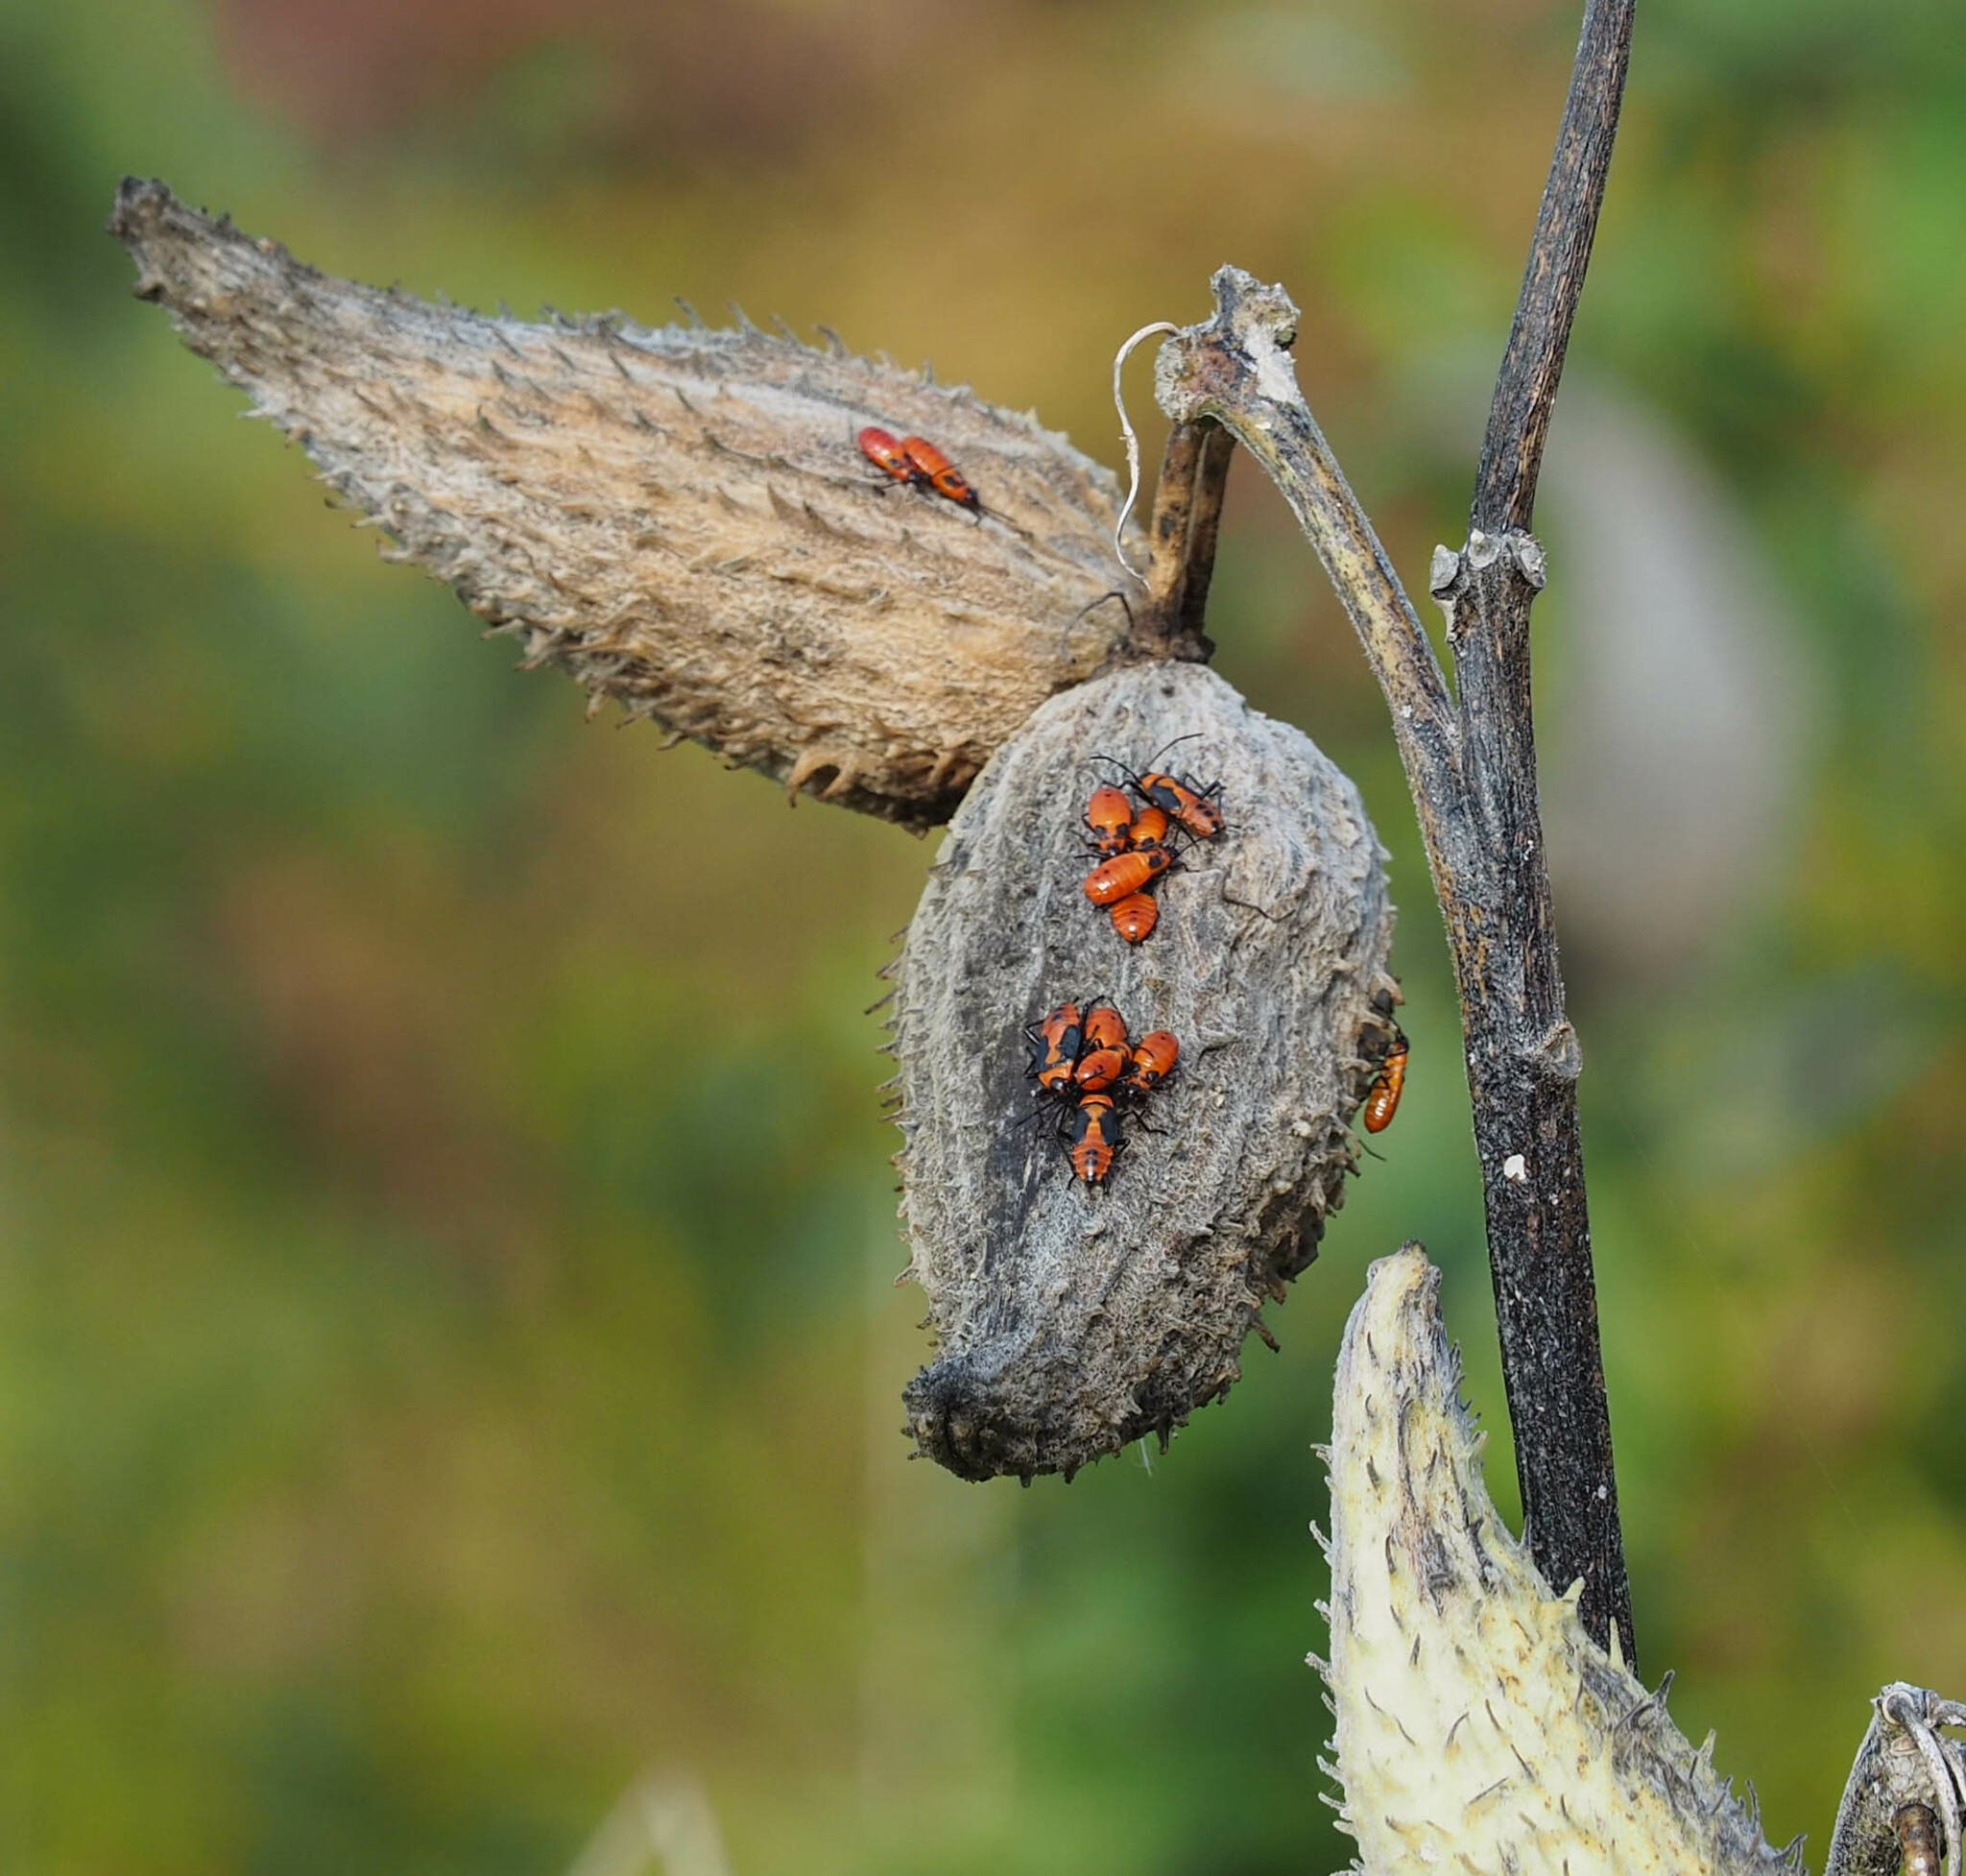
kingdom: Animalia
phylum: Arthropoda
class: Insecta
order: Hemiptera
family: Lygaeidae
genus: Oncopeltus
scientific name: Oncopeltus fasciatus
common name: Large milkweed bug
